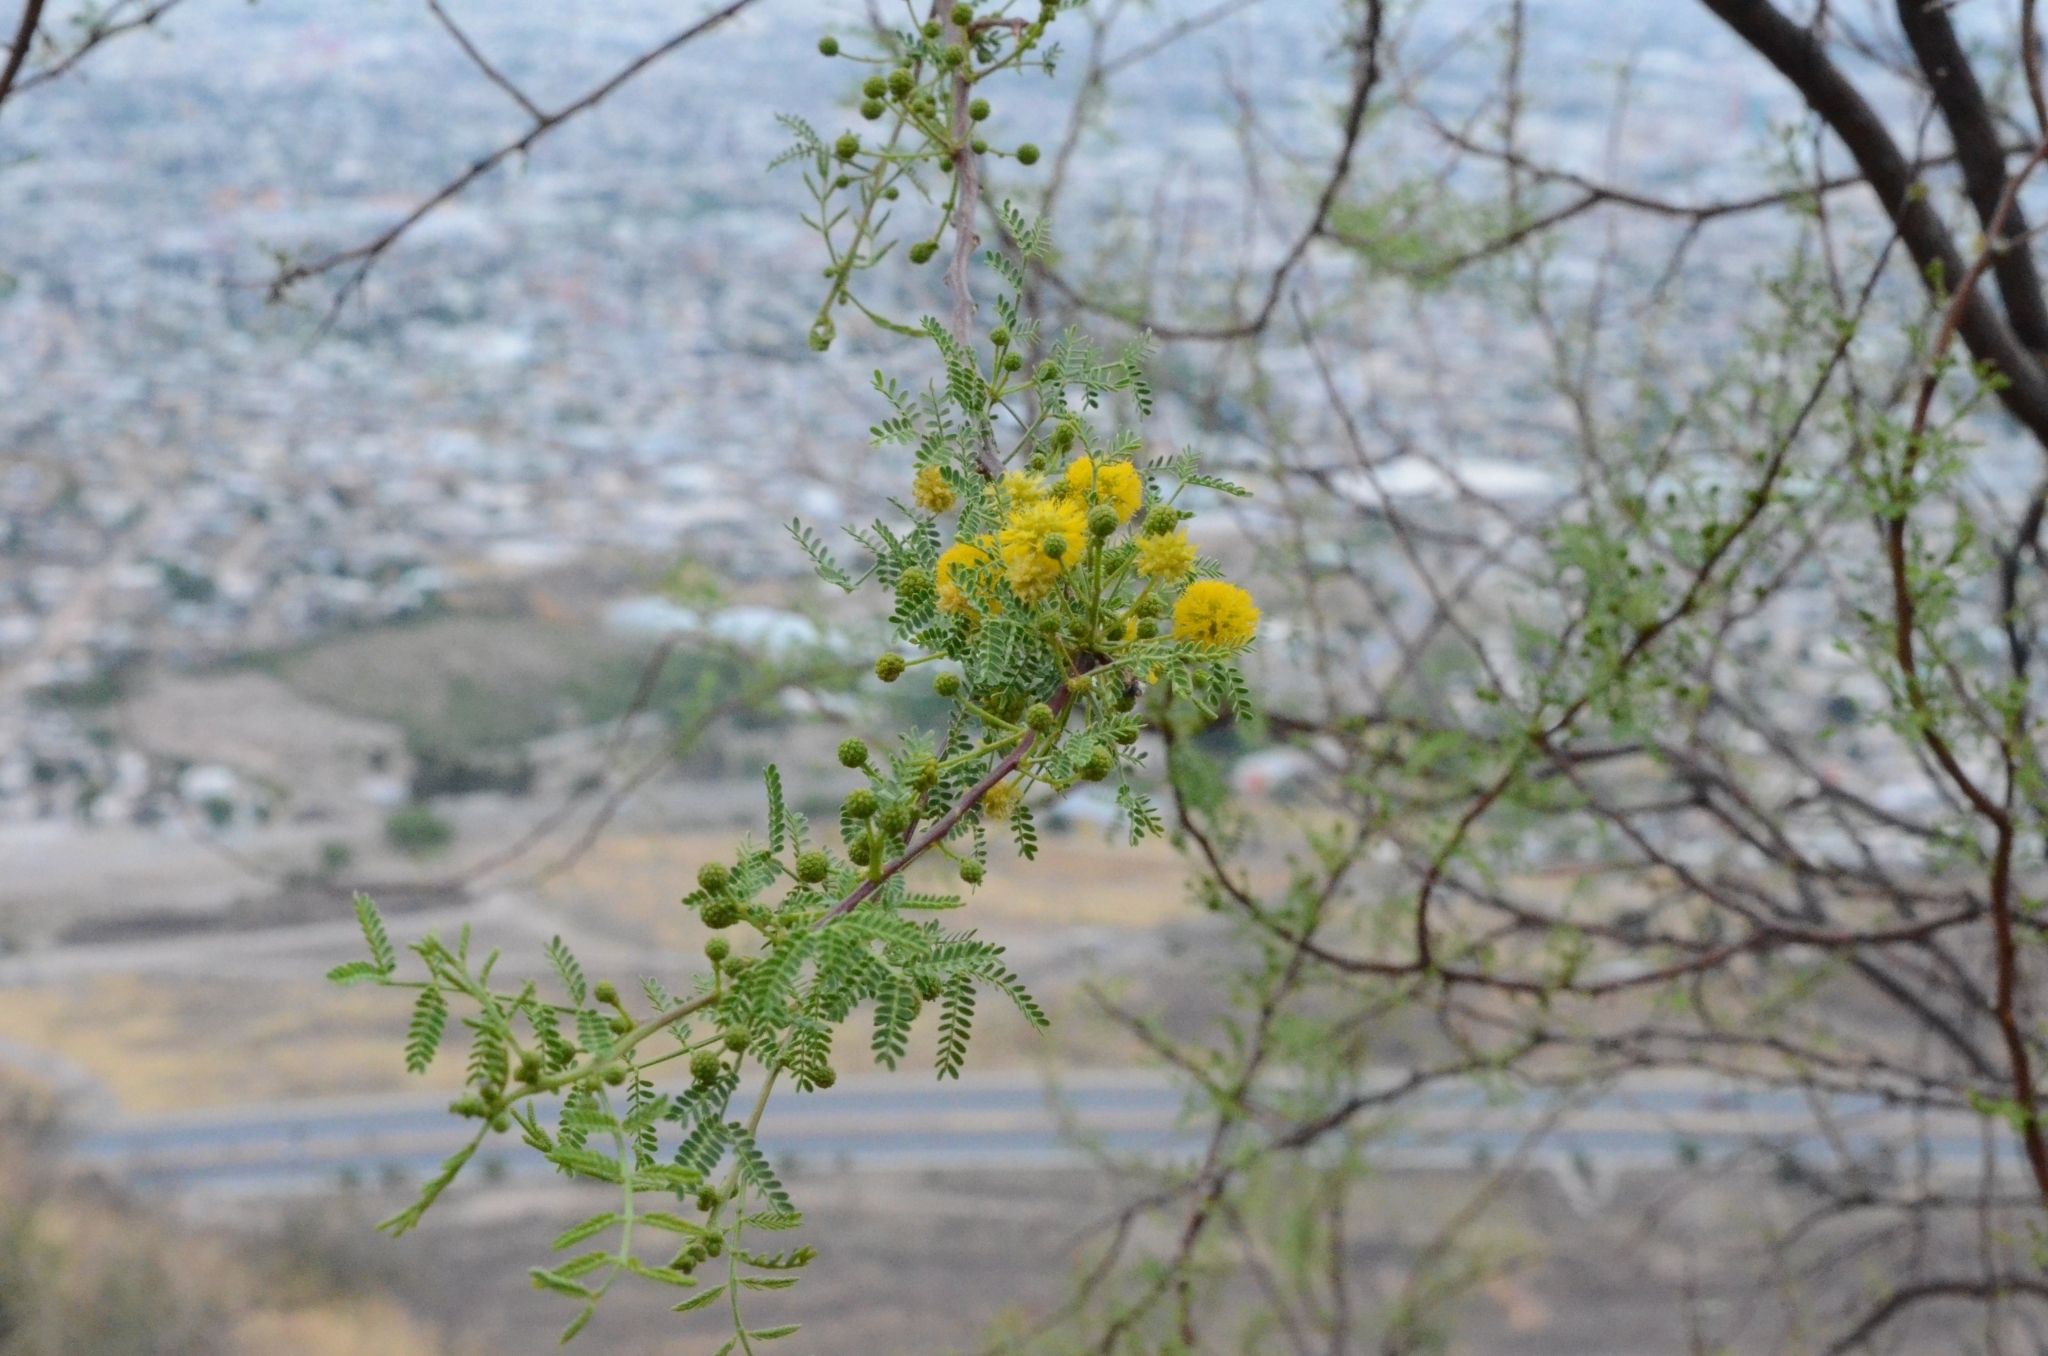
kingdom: Plantae
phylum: Tracheophyta
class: Magnoliopsida
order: Fabales
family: Fabaceae
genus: Vachellia
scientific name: Vachellia constricta
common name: Mescat acacia
